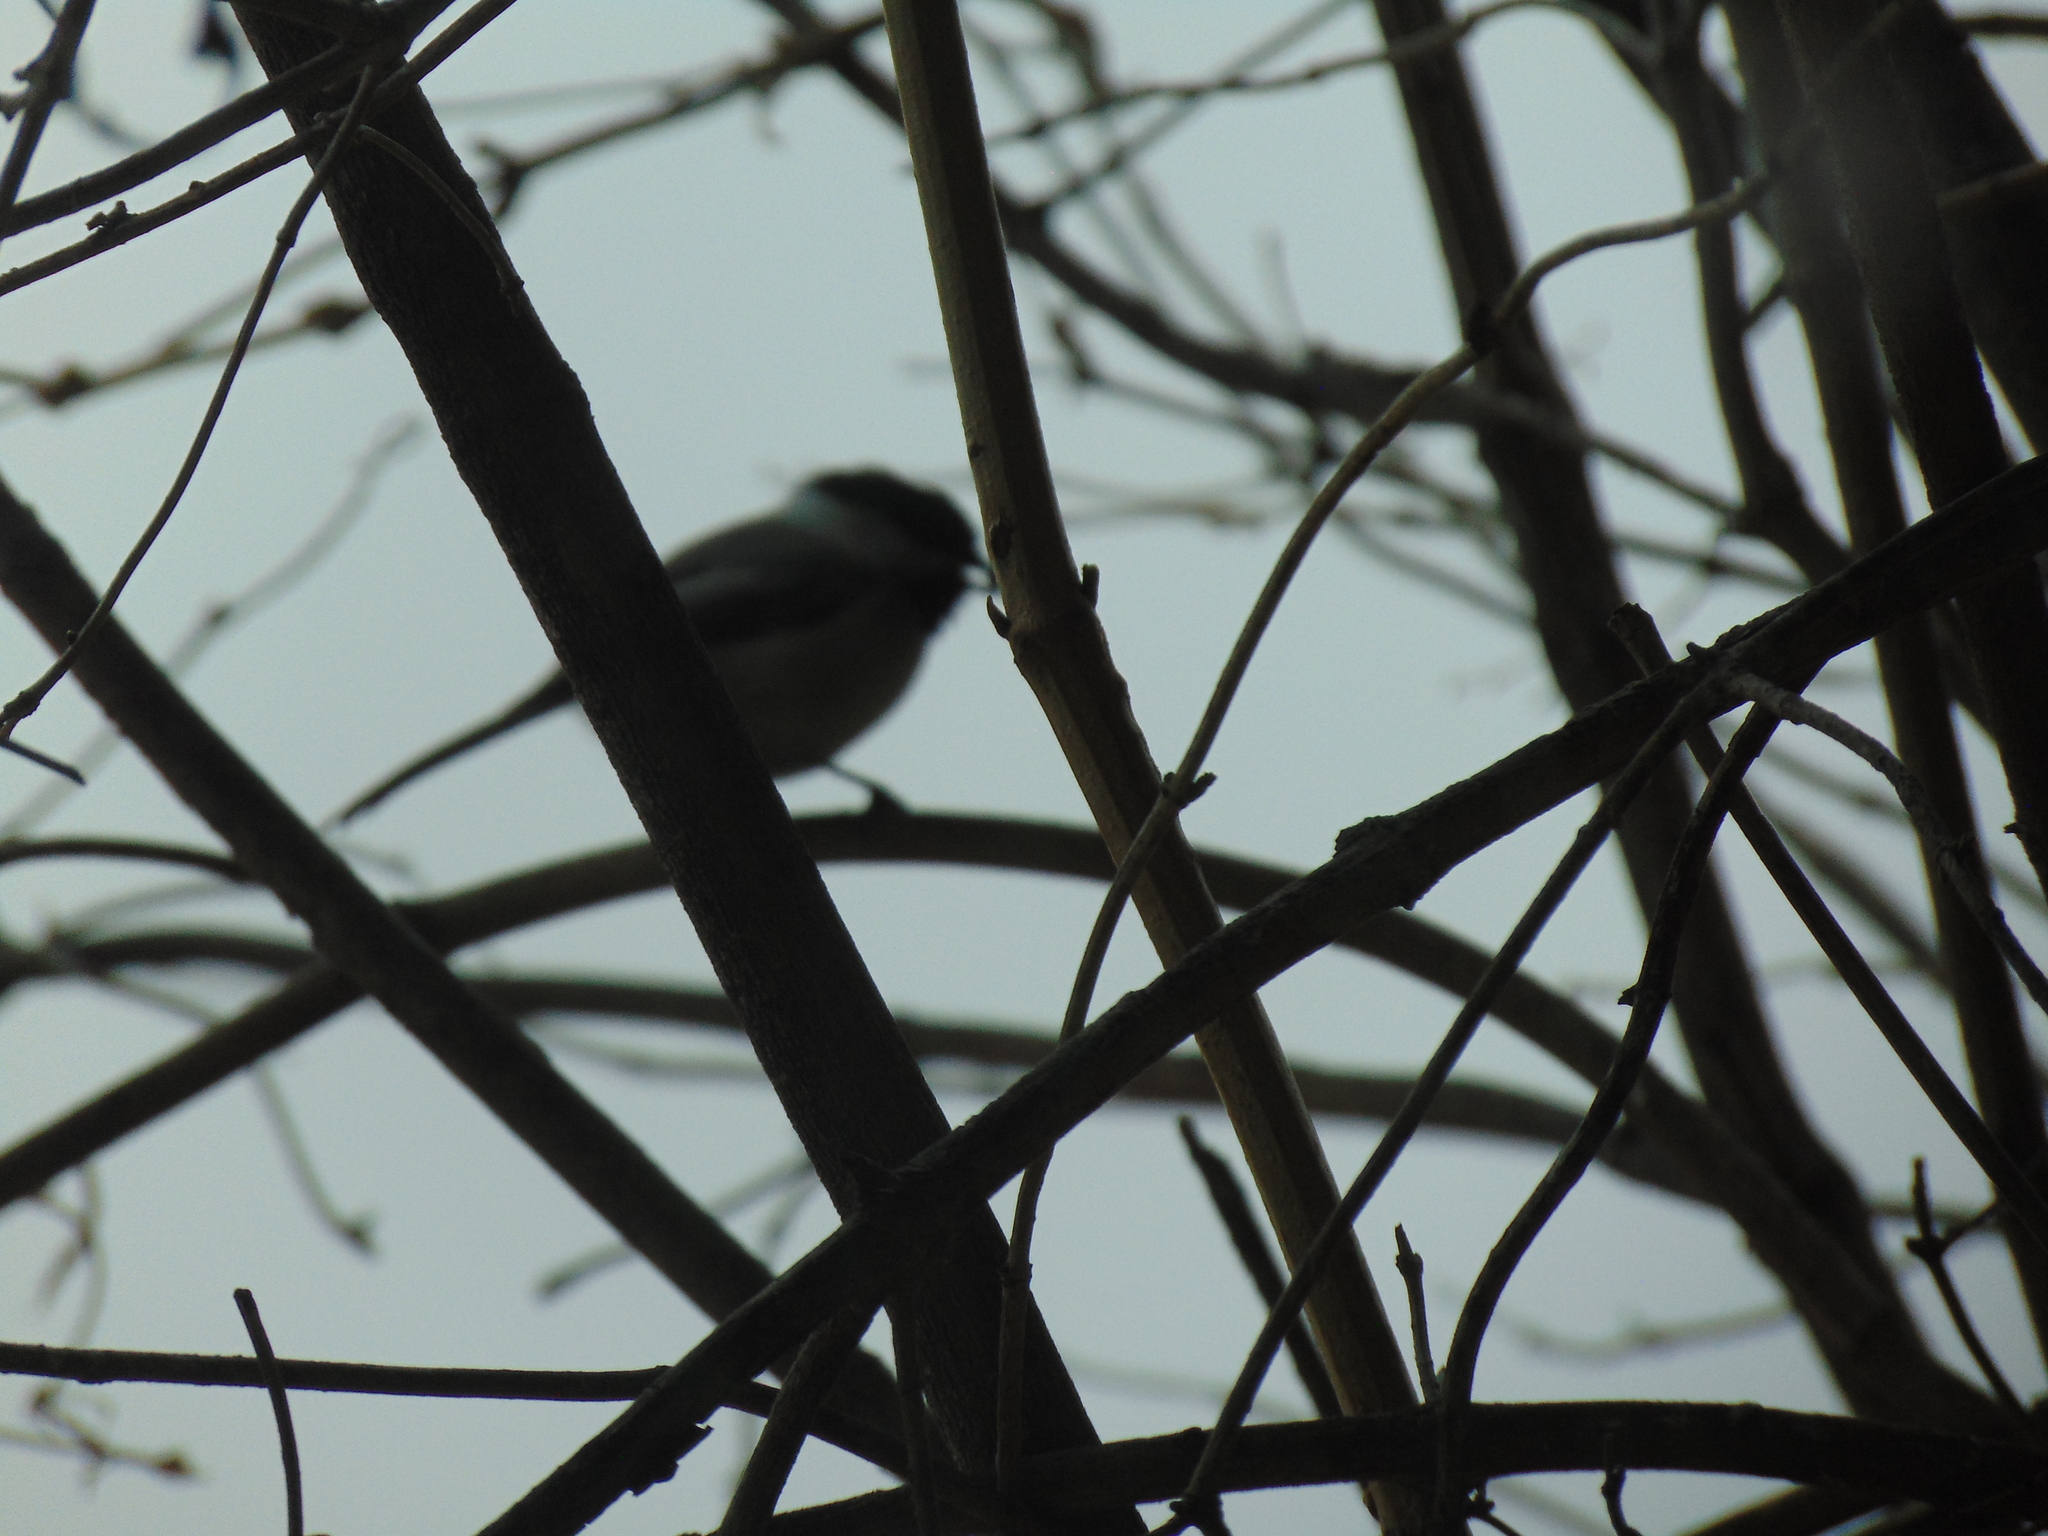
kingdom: Animalia
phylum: Chordata
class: Aves
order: Passeriformes
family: Paridae
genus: Poecile
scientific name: Poecile atricapillus
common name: Black-capped chickadee
